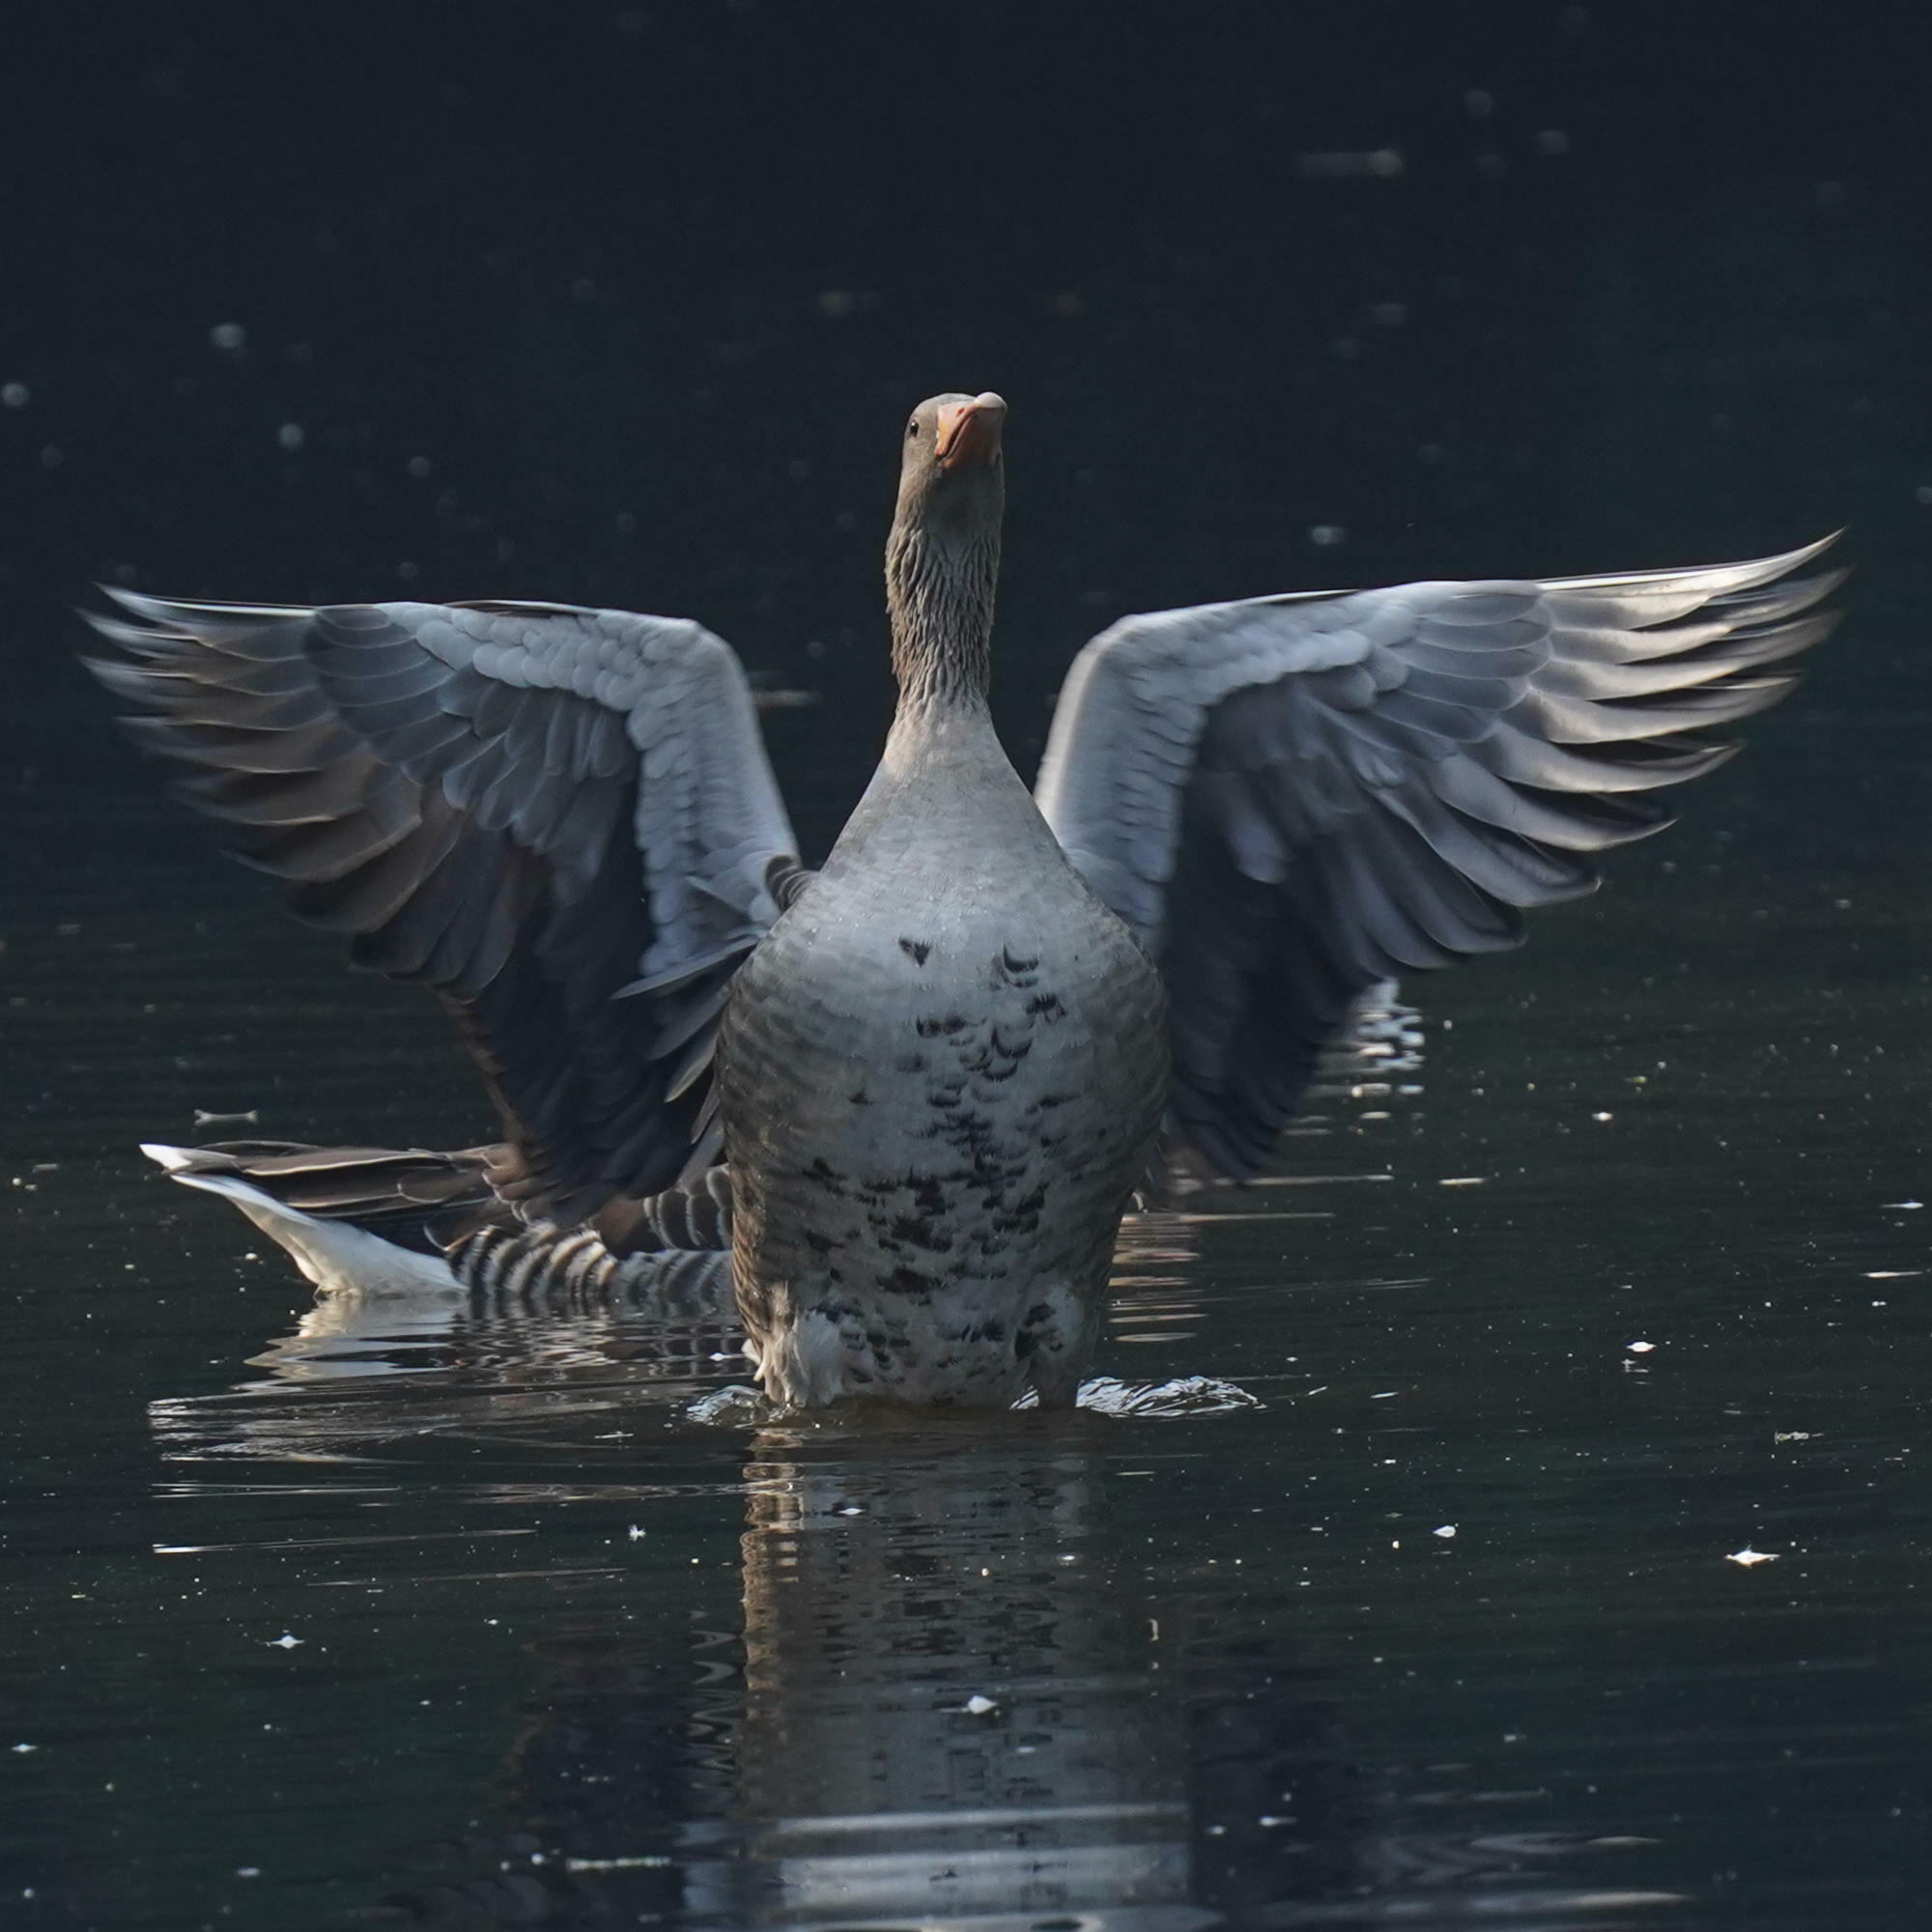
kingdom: Animalia
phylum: Chordata
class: Aves
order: Anseriformes
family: Anatidae
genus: Anser
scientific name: Anser anser
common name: Greylag goose
